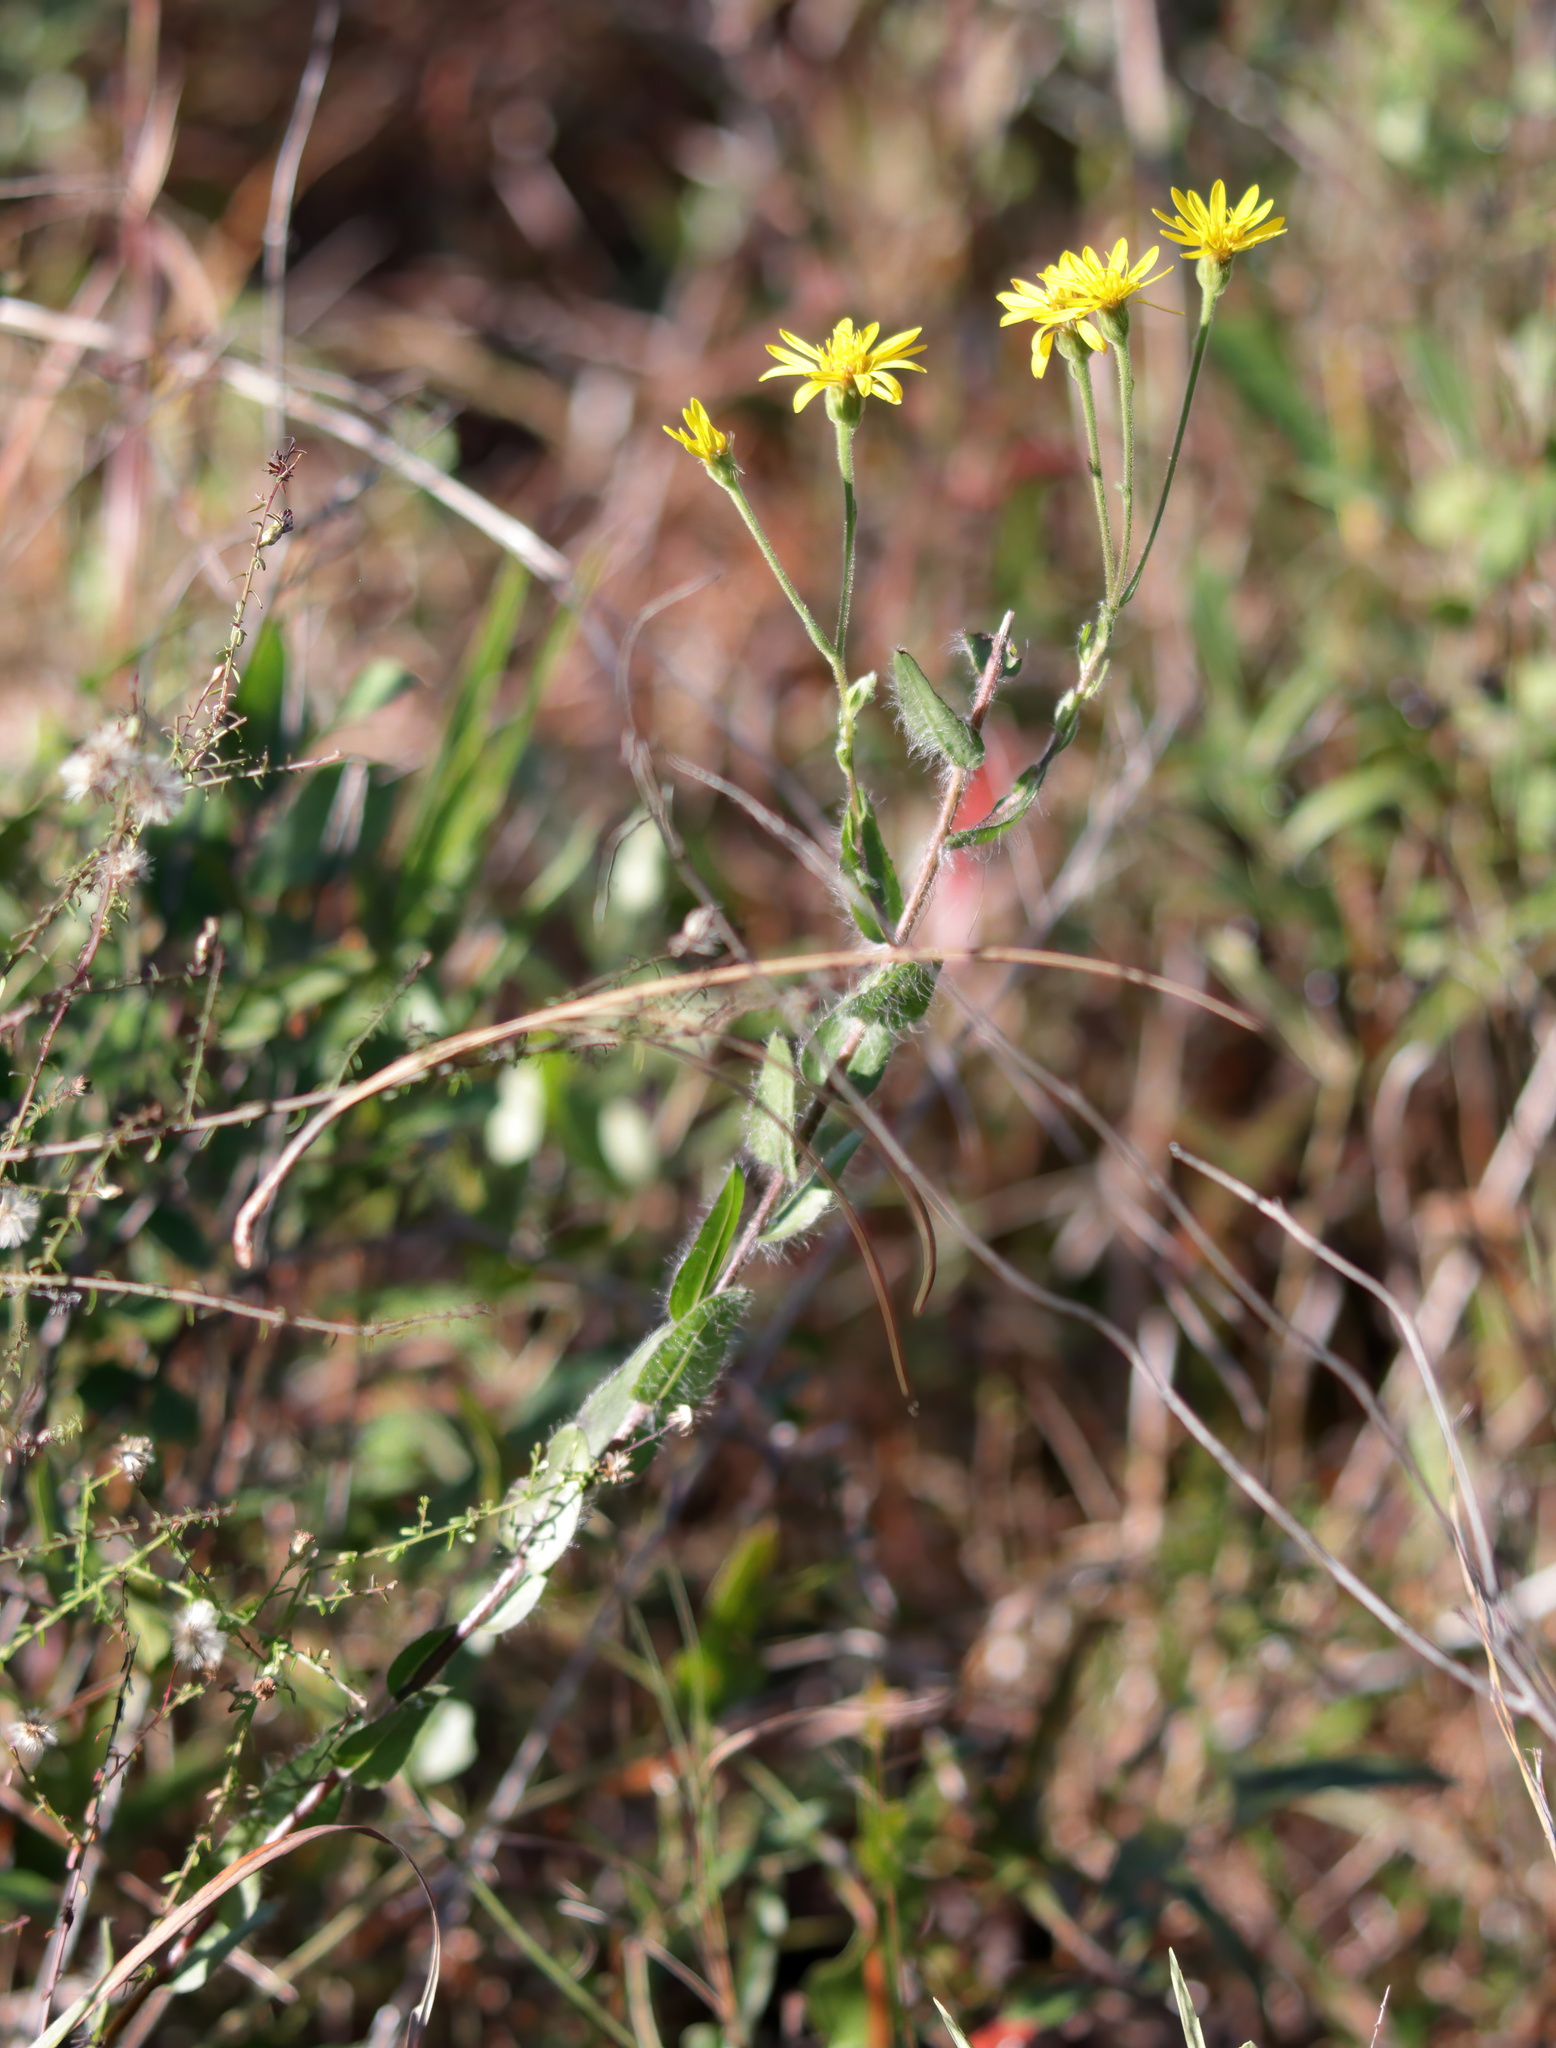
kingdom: Plantae
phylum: Tracheophyta
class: Magnoliopsida
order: Asterales
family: Asteraceae
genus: Chrysopsis
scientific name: Chrysopsis mariana
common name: Maryland golden-aster
